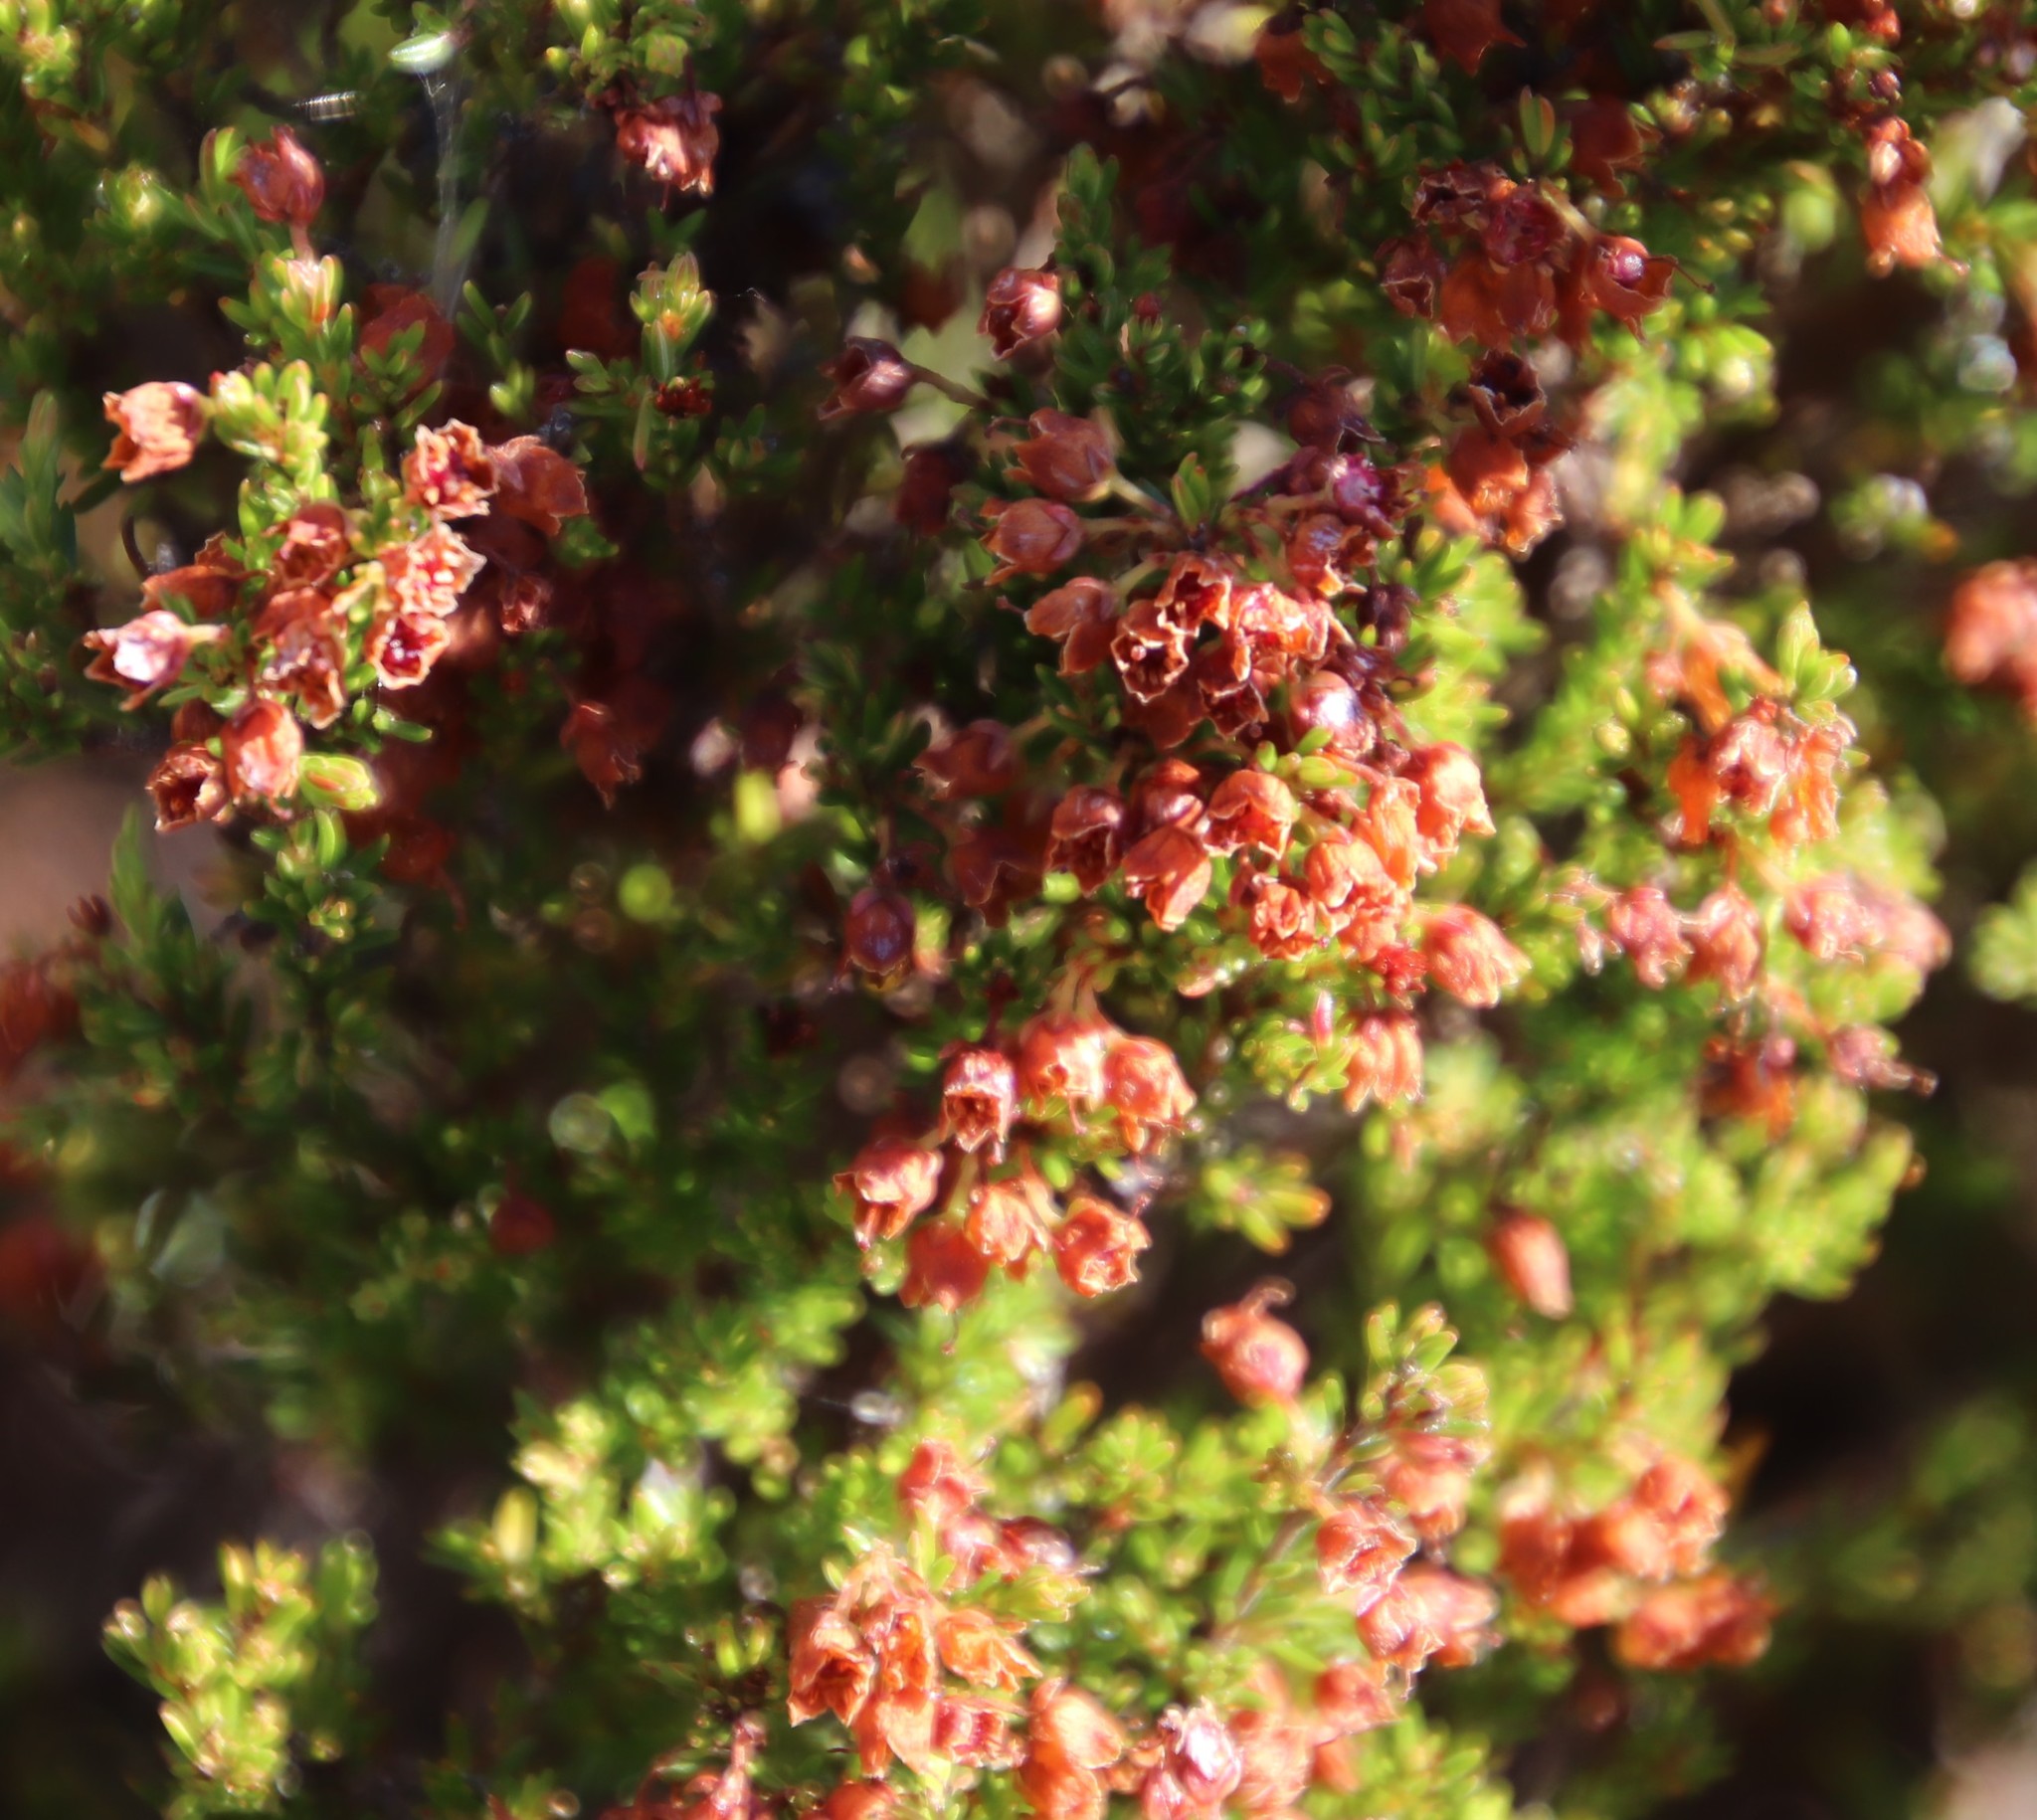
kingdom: Plantae
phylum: Tracheophyta
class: Magnoliopsida
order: Ericales
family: Ericaceae
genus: Erica
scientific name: Erica curvirostris
